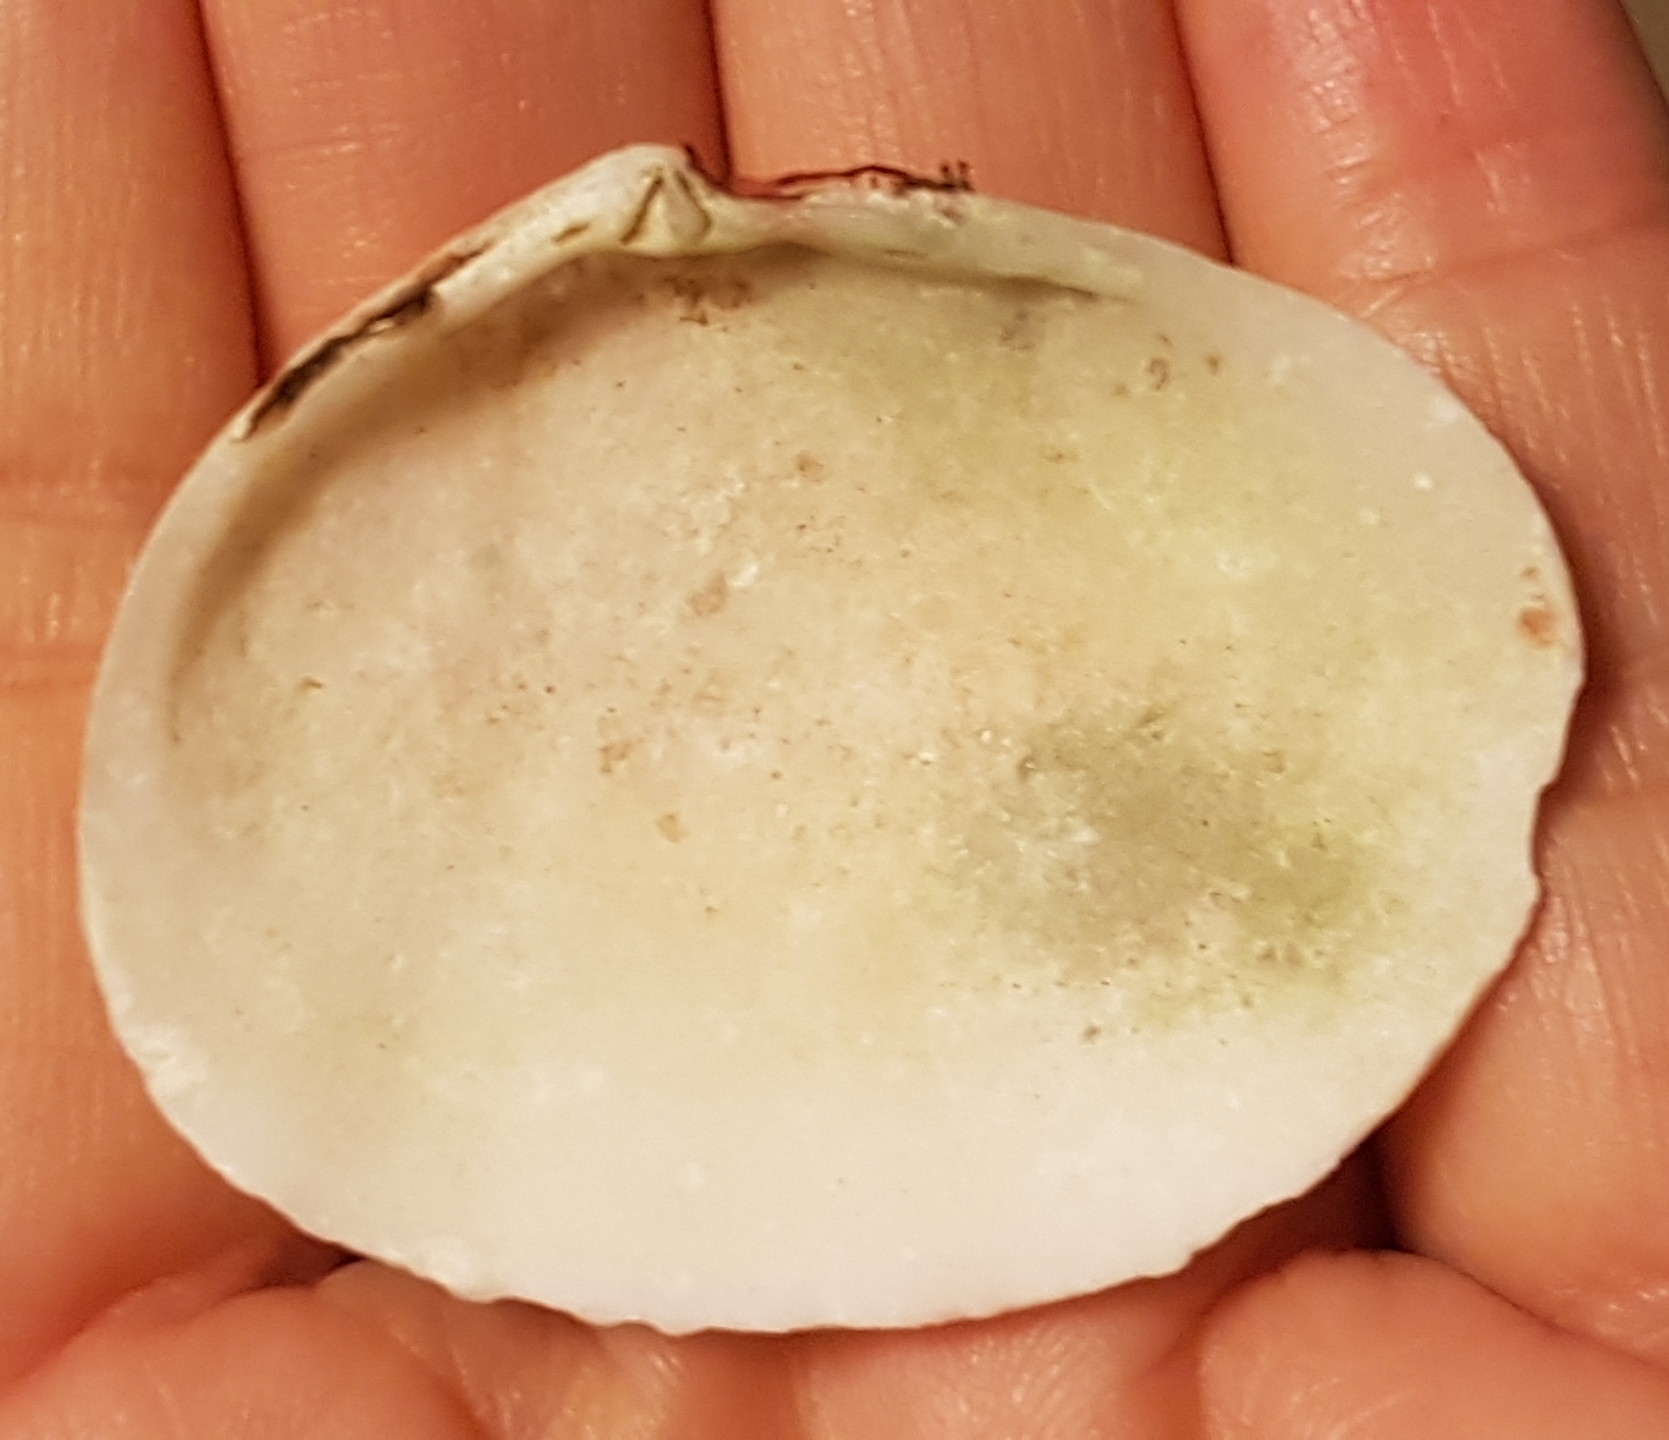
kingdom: Animalia
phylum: Mollusca
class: Bivalvia
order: Cardiida
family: Tellinidae
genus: Arcopagia
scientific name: Arcopagia crassa
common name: Blunt tellin
